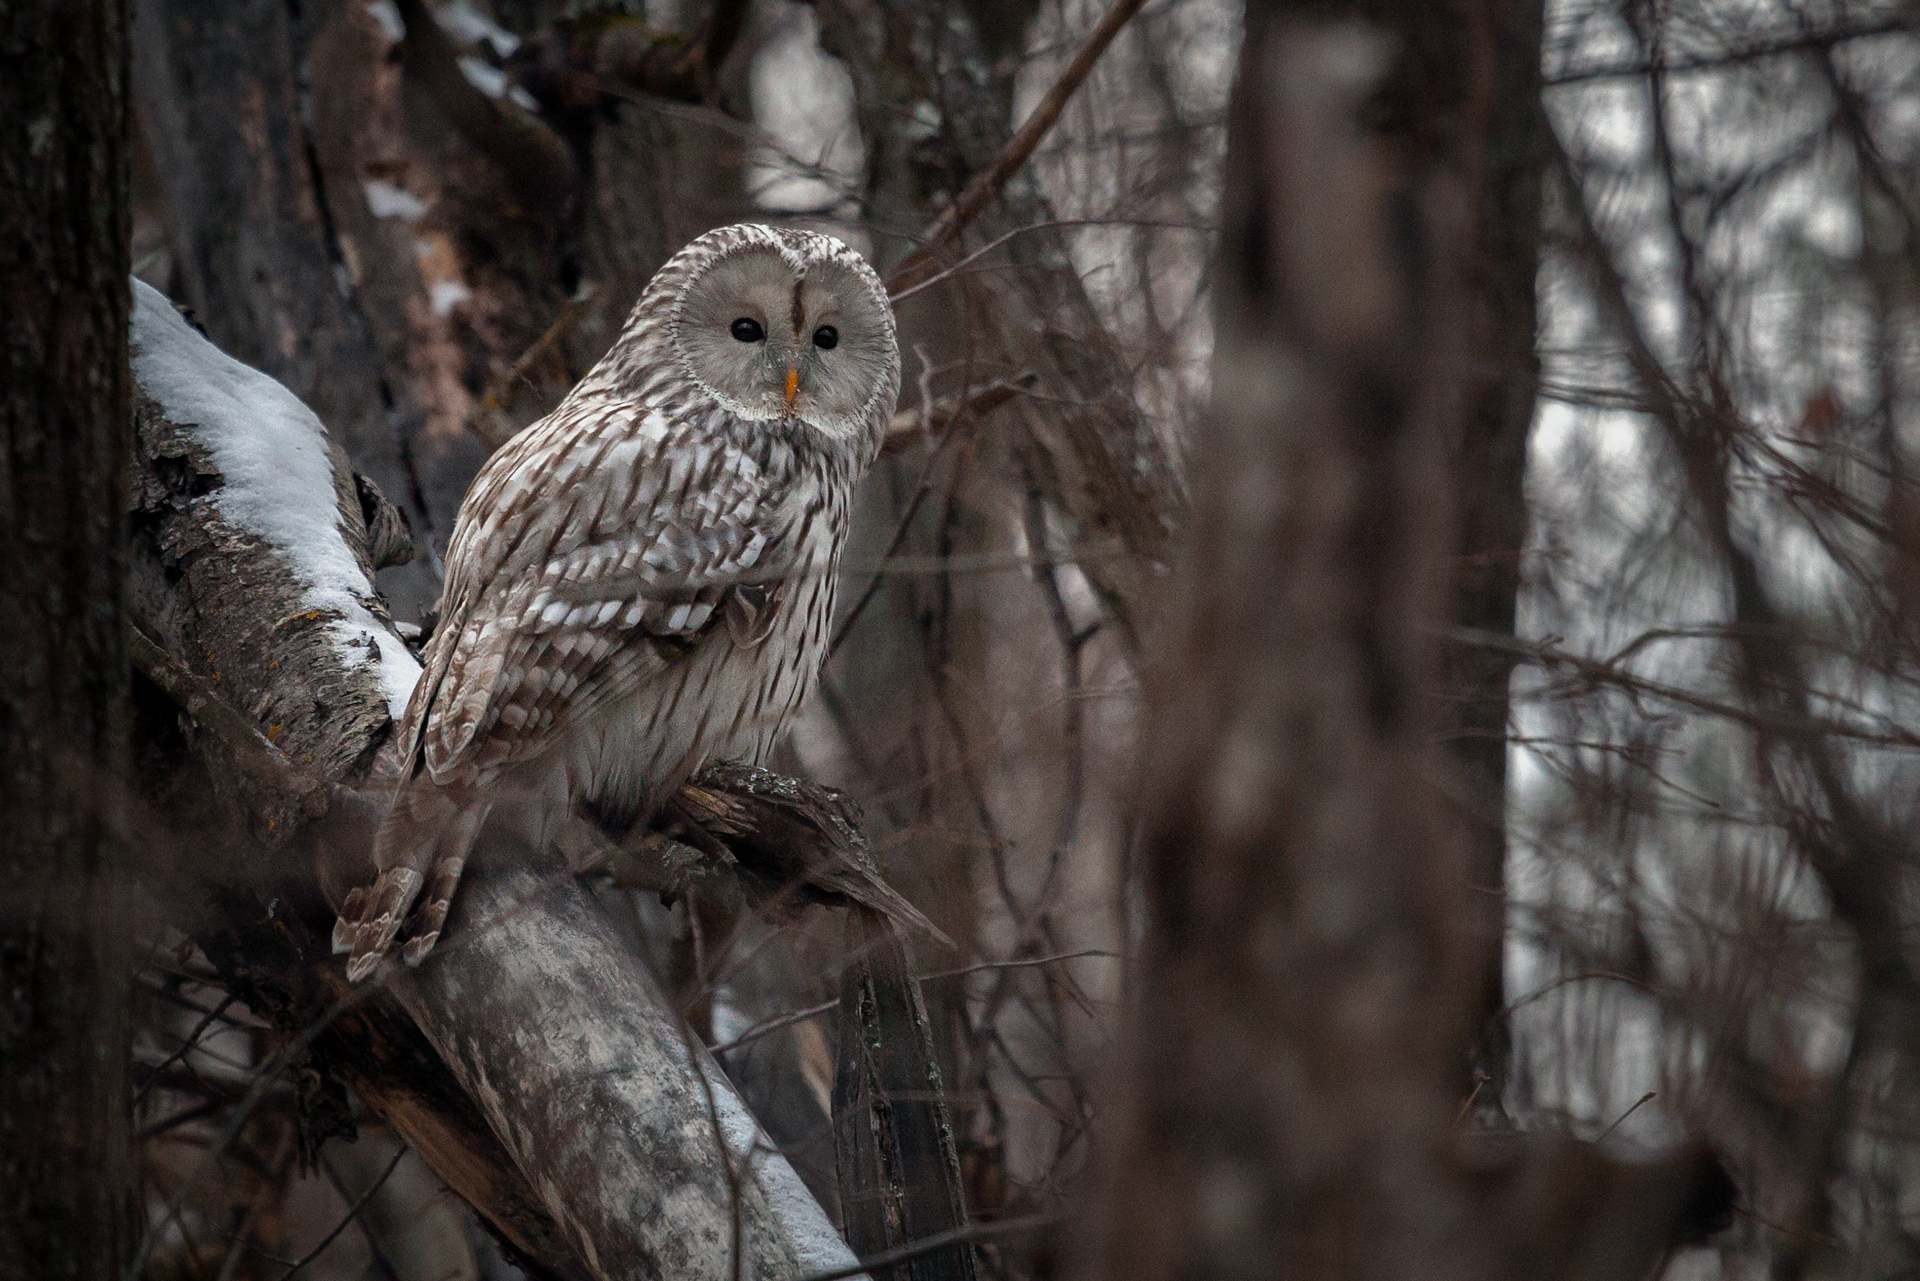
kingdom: Animalia
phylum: Chordata
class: Aves
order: Strigiformes
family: Strigidae
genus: Strix
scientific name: Strix uralensis
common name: Ural owl
